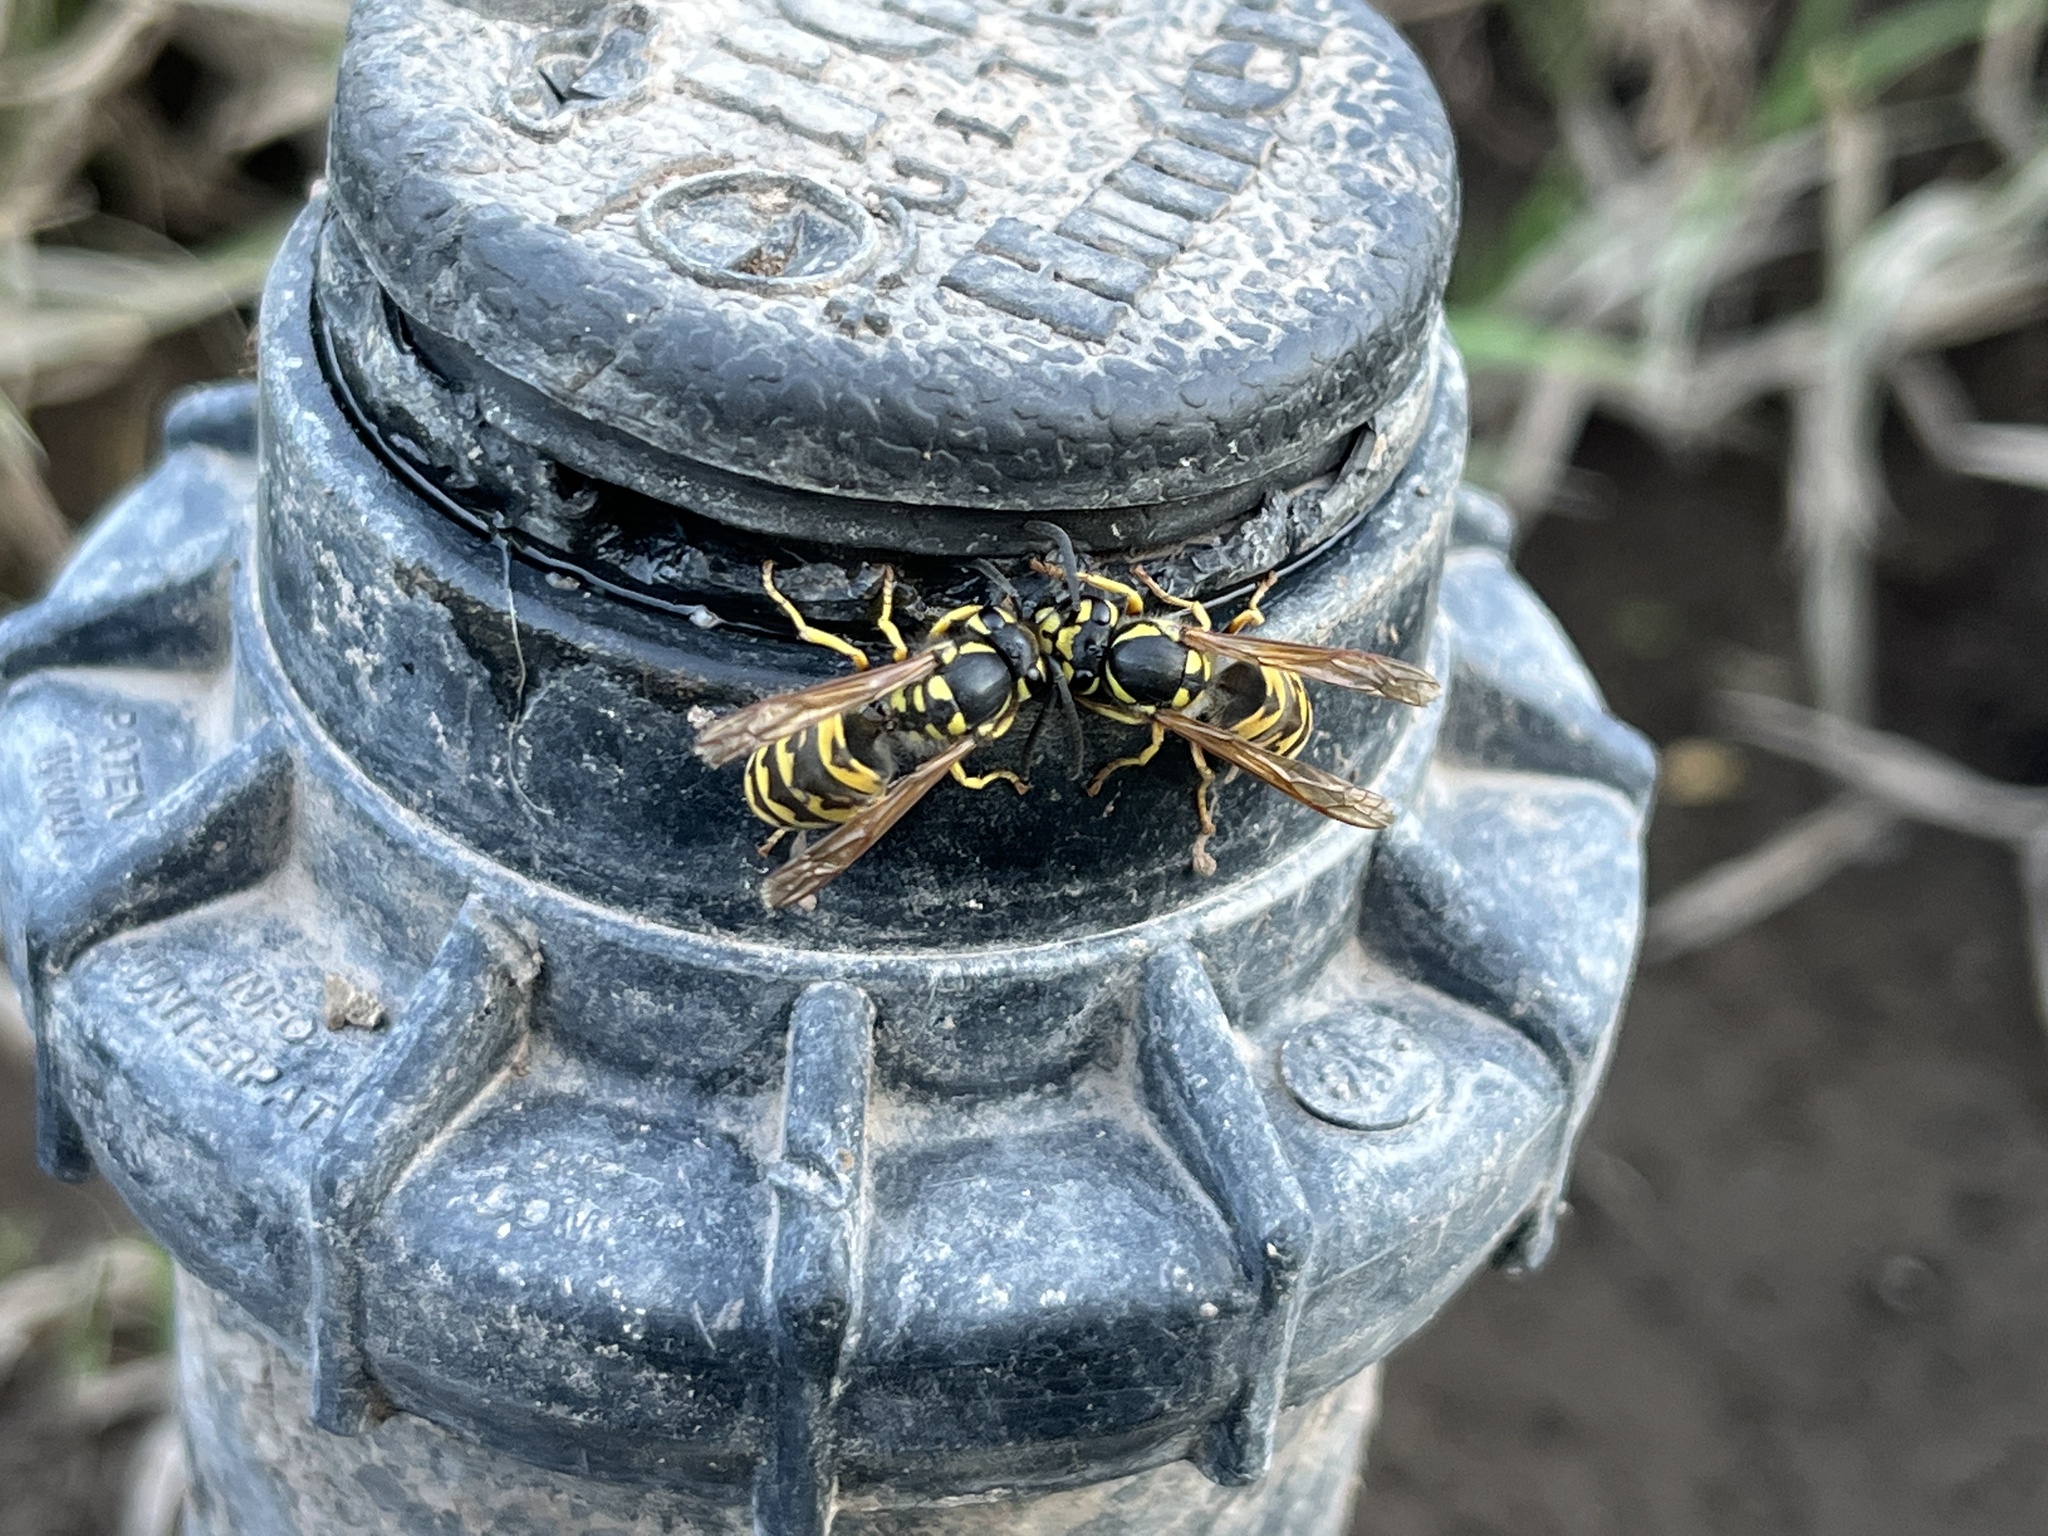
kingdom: Animalia
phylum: Arthropoda
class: Insecta
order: Hymenoptera
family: Vespidae
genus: Vespula
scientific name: Vespula germanica
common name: German wasp
